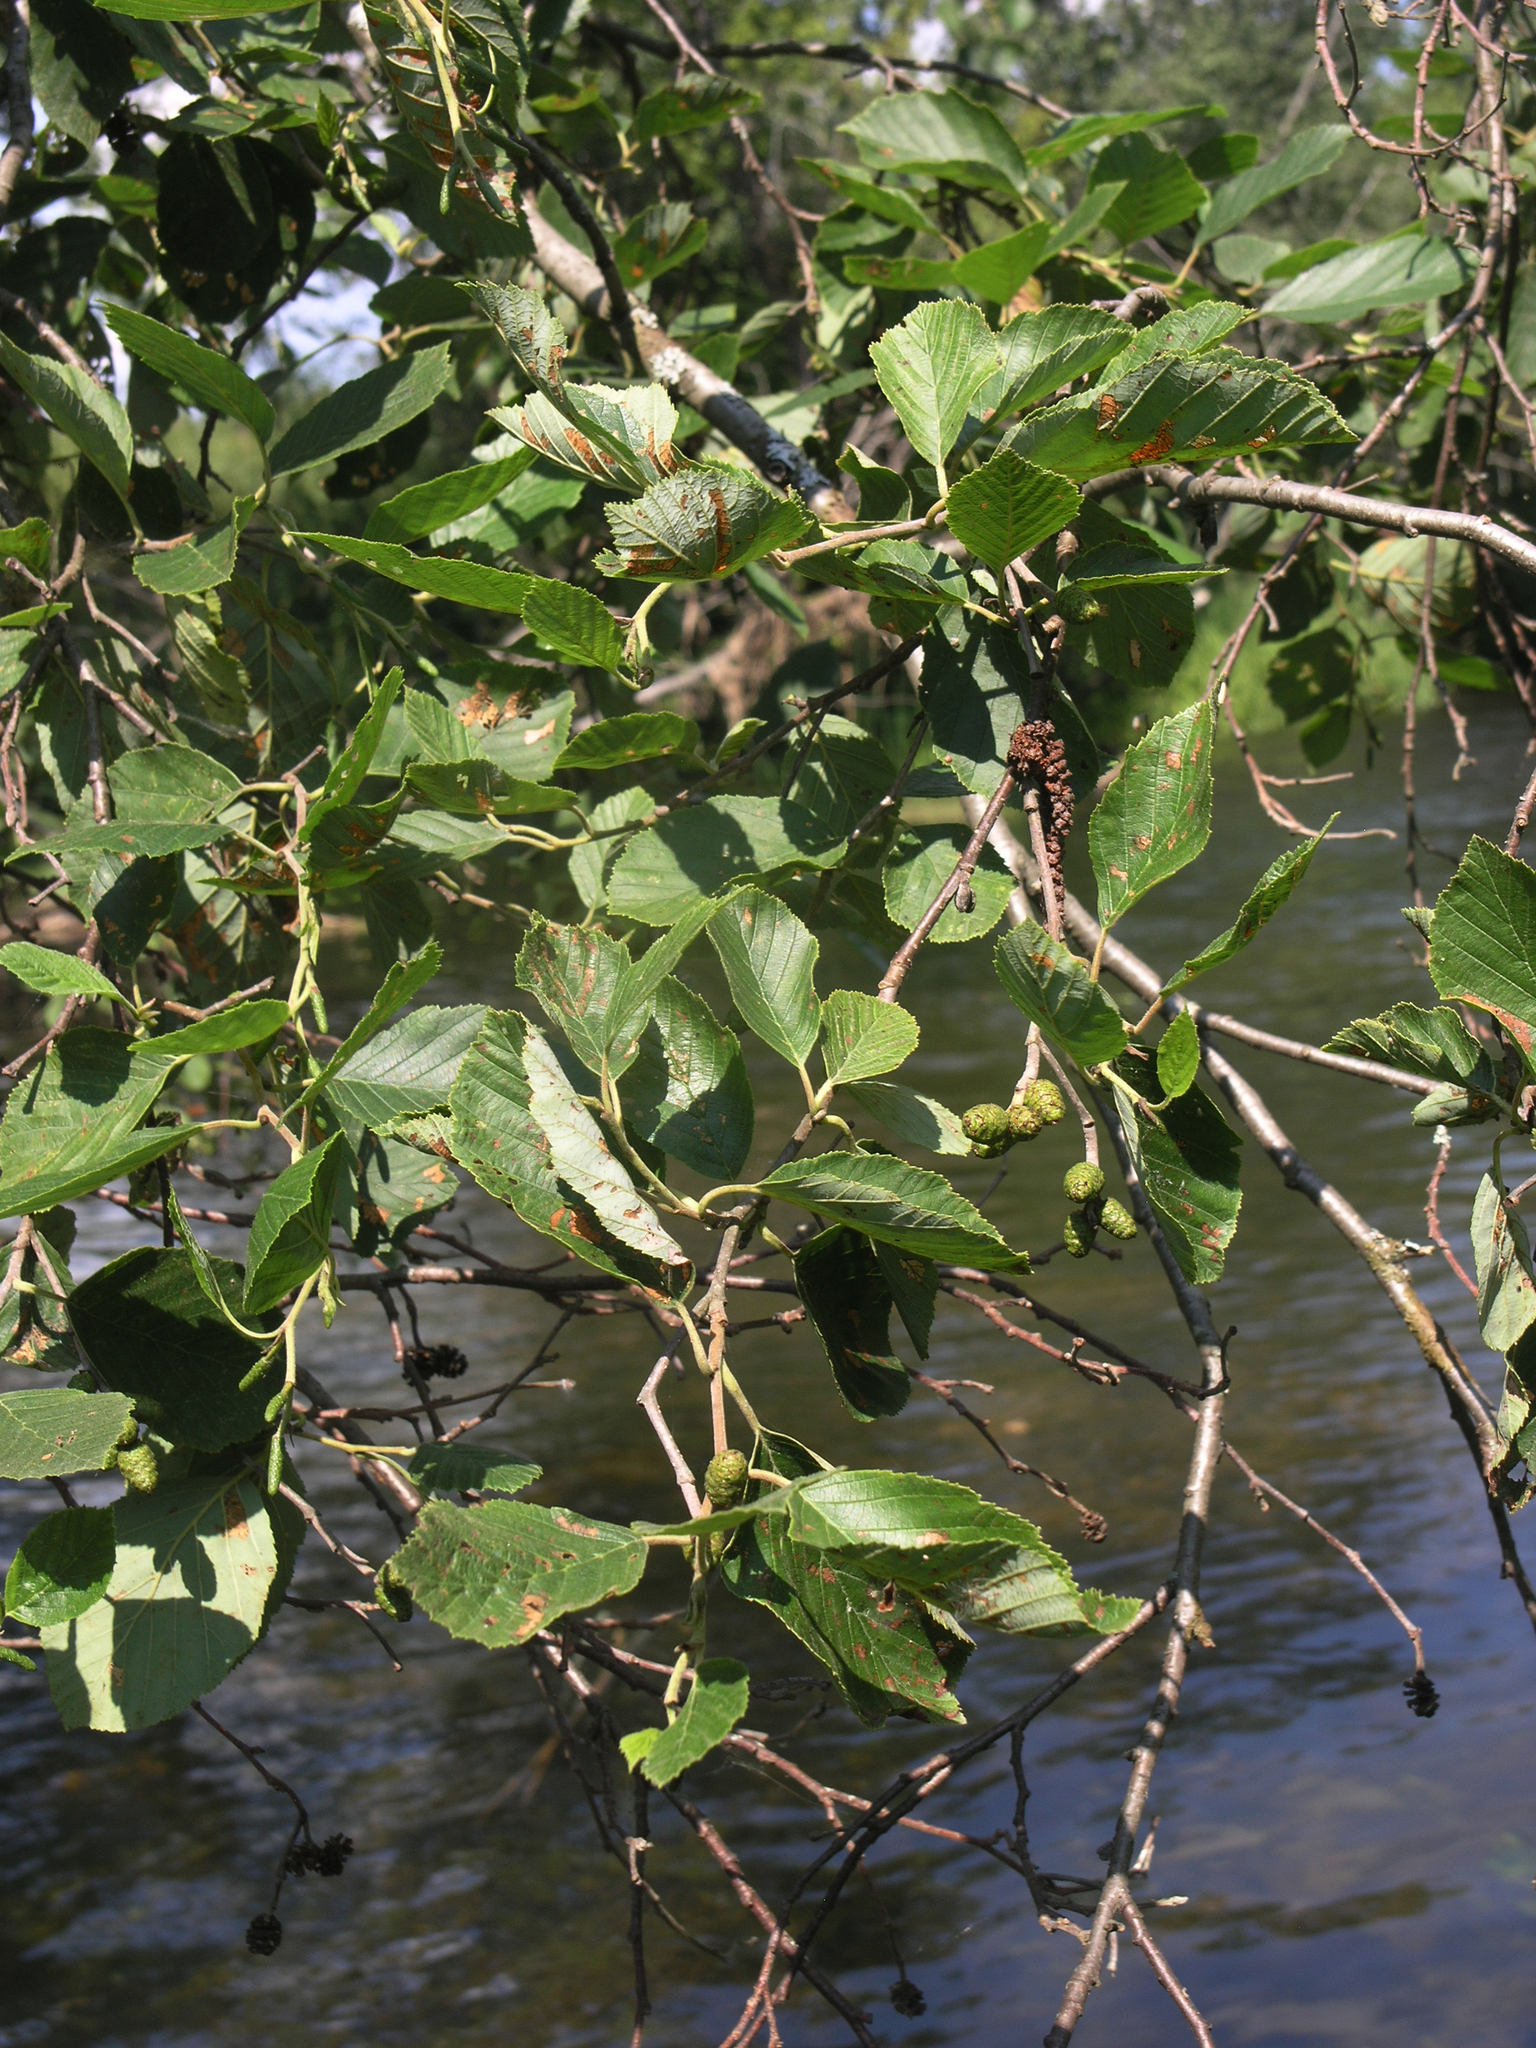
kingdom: Plantae
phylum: Tracheophyta
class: Magnoliopsida
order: Fagales
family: Betulaceae
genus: Alnus
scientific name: Alnus incana
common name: Grey alder
